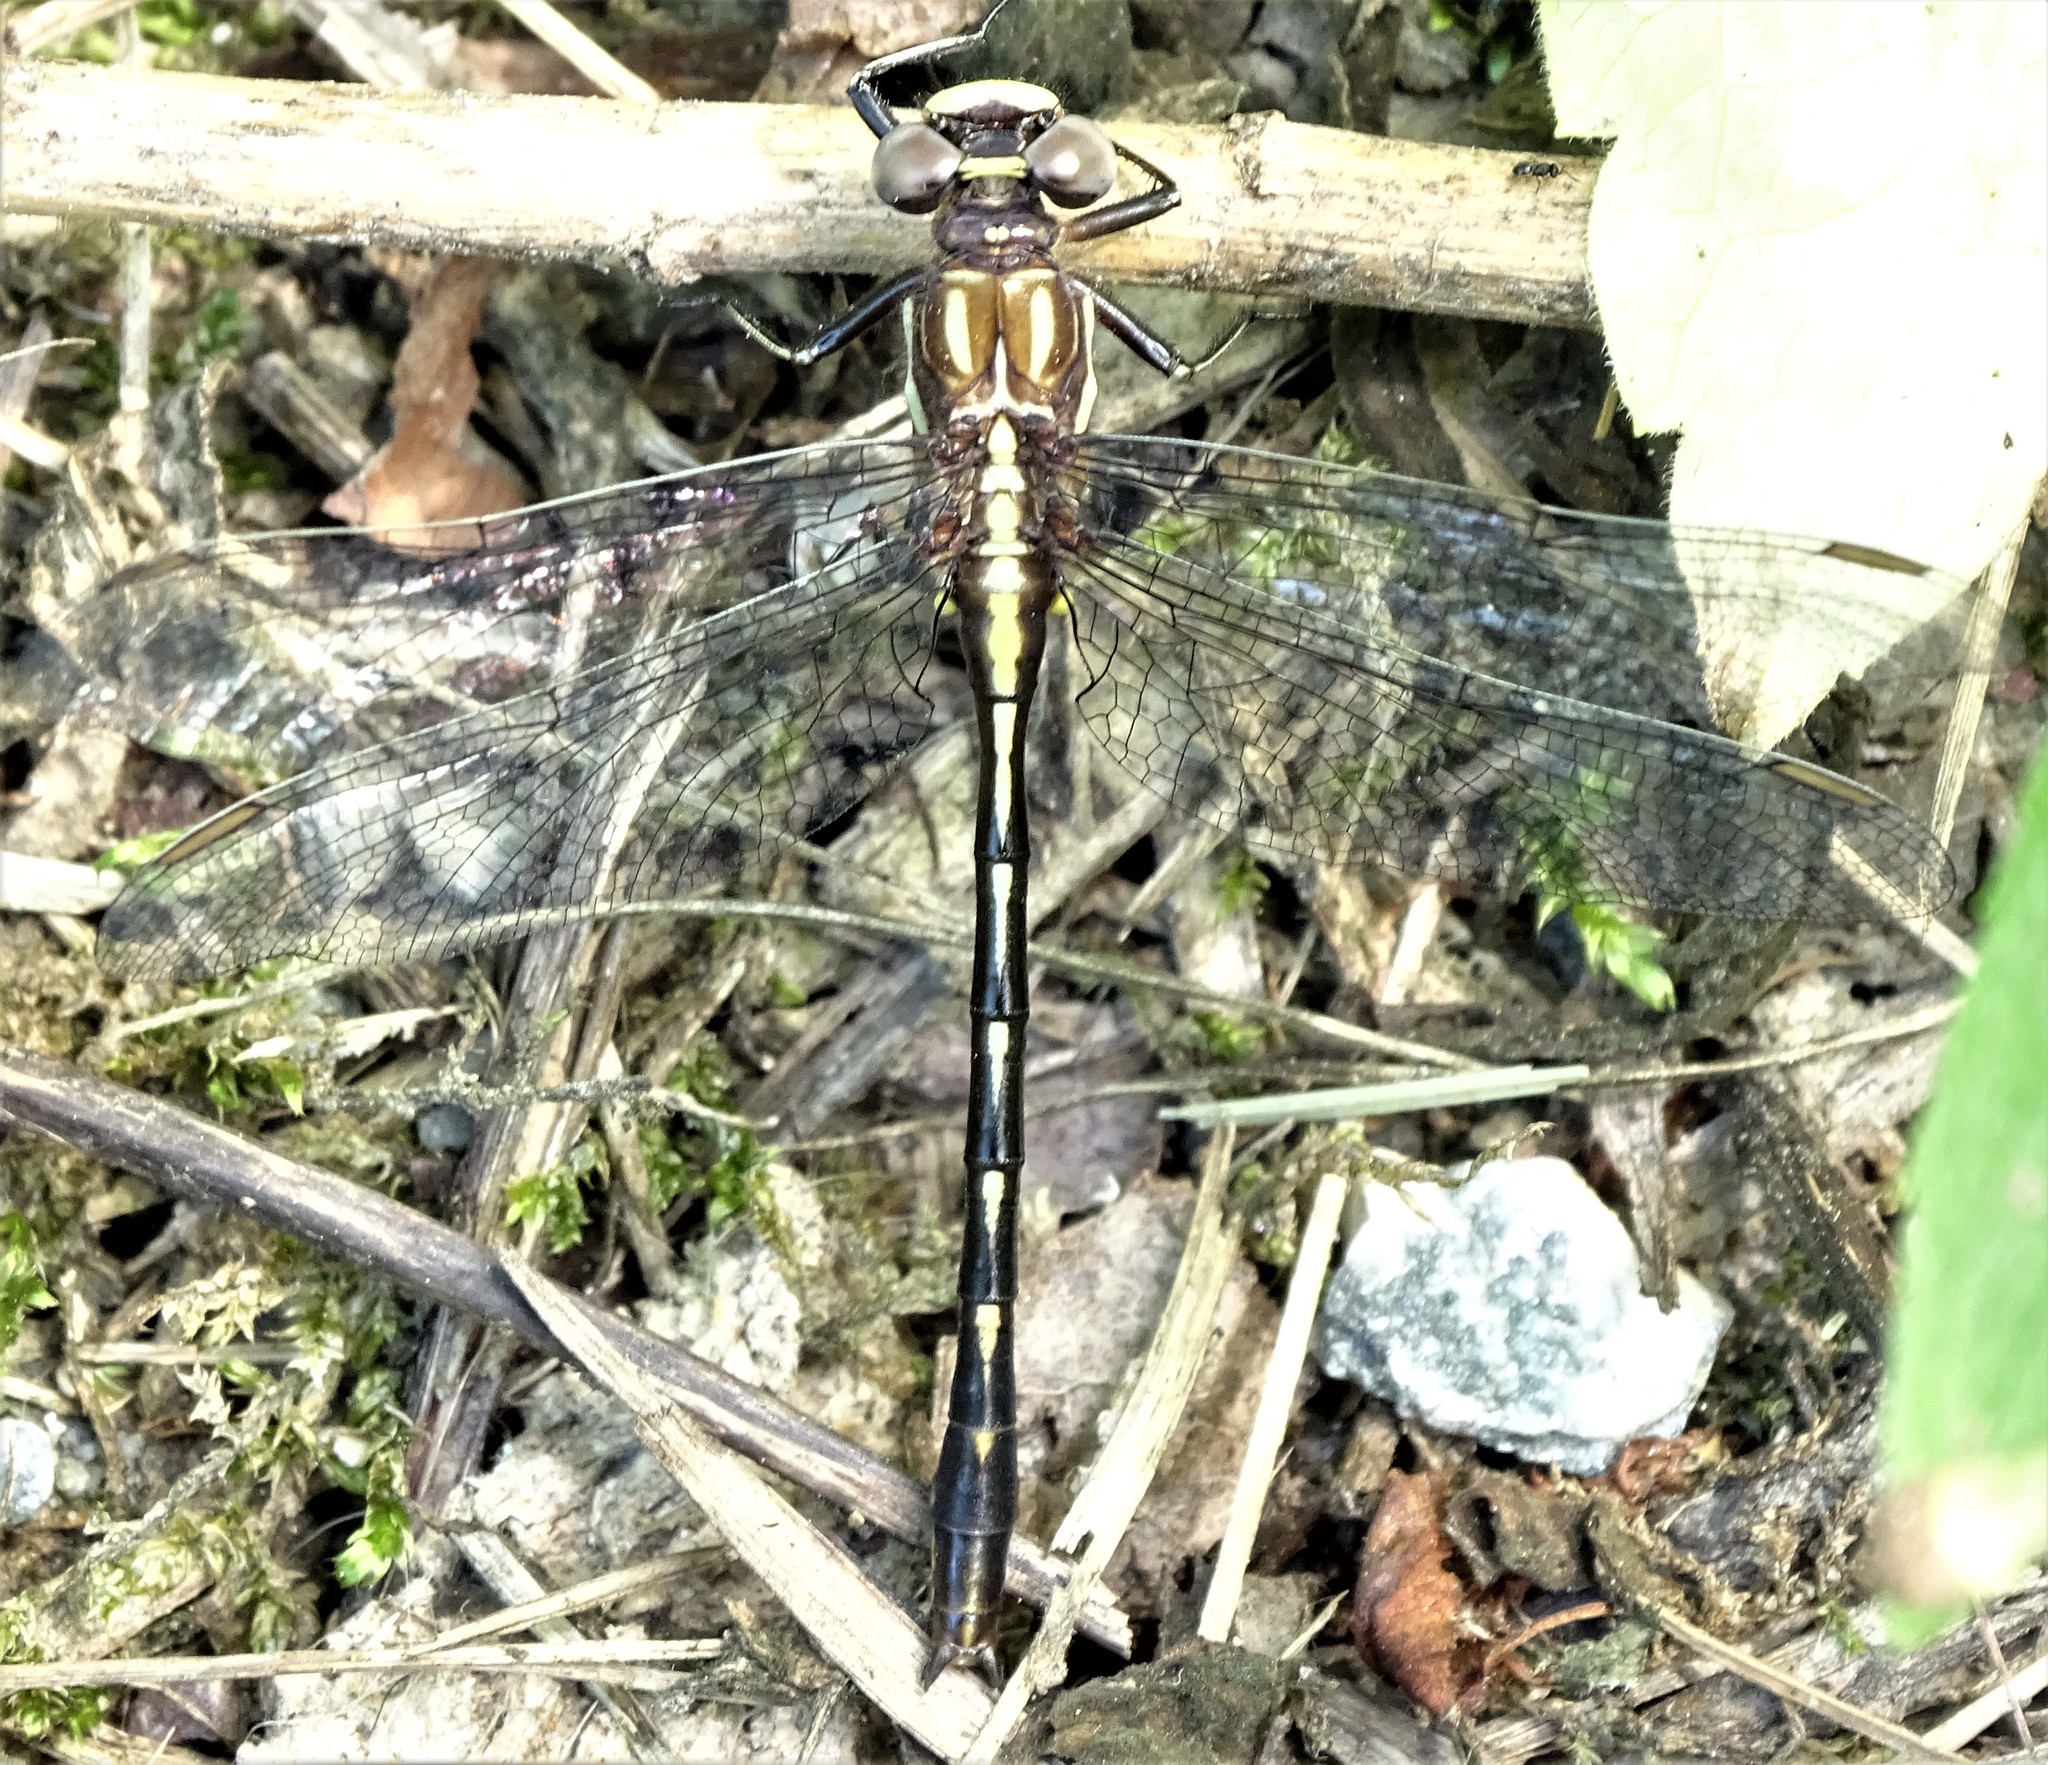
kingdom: Animalia
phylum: Arthropoda
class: Insecta
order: Odonata
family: Gomphidae
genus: Phanogomphus
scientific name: Phanogomphus exilis
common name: Lancet clubtail
